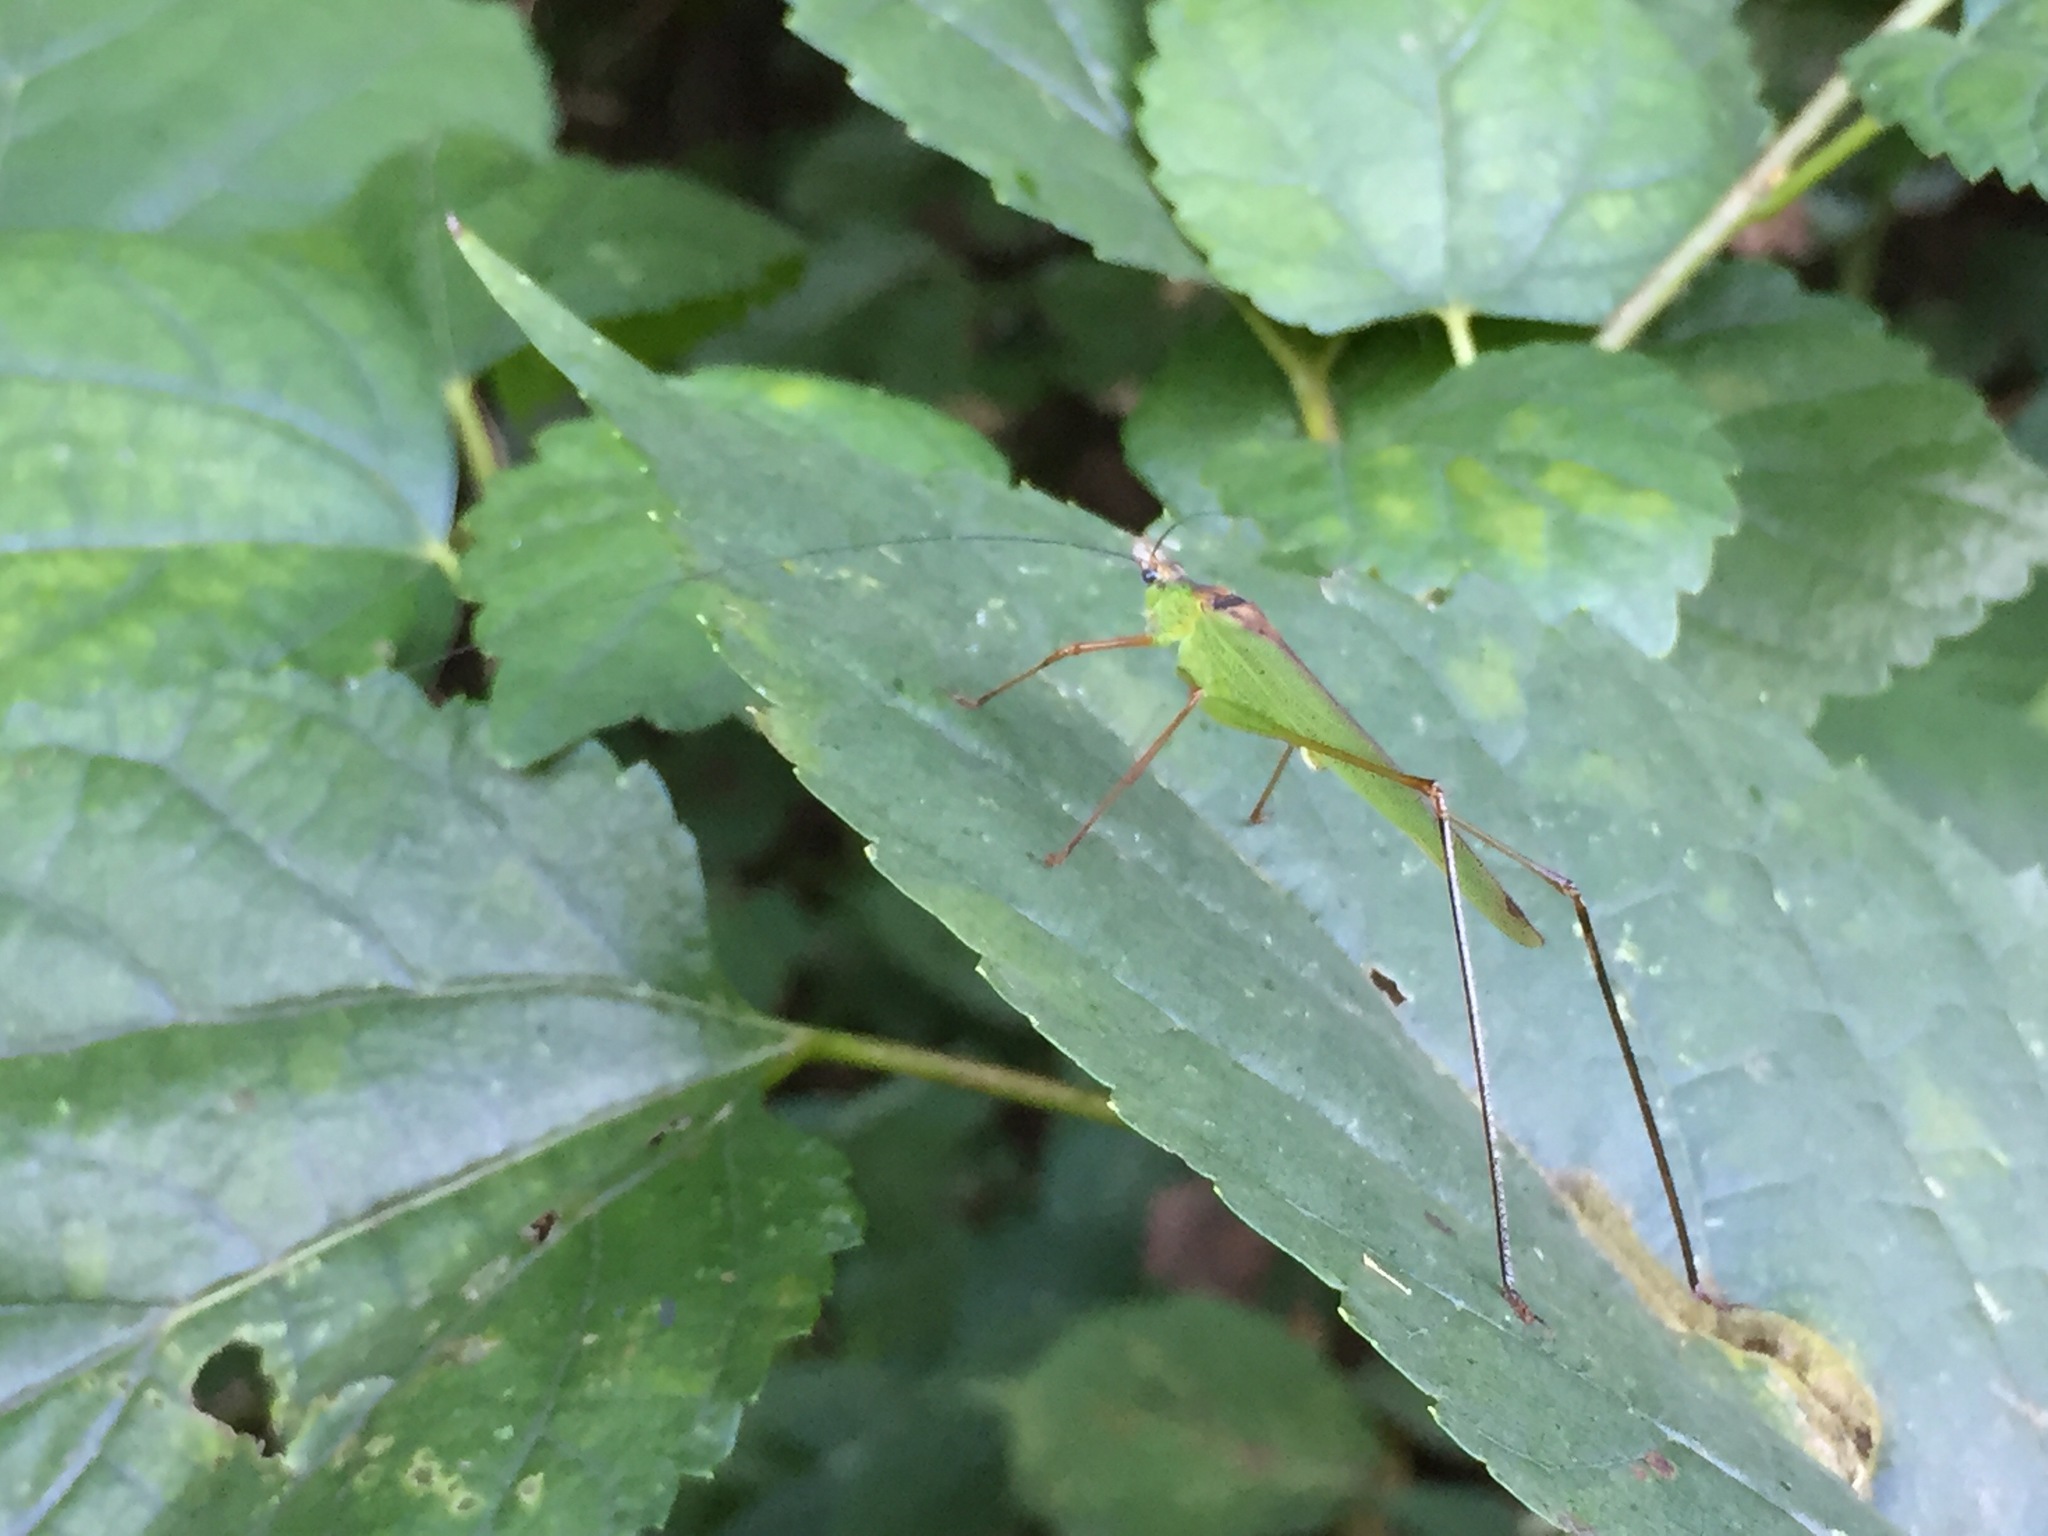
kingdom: Animalia
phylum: Arthropoda
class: Insecta
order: Orthoptera
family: Tettigoniidae
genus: Phaneroptera
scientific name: Phaneroptera nigroantennata
